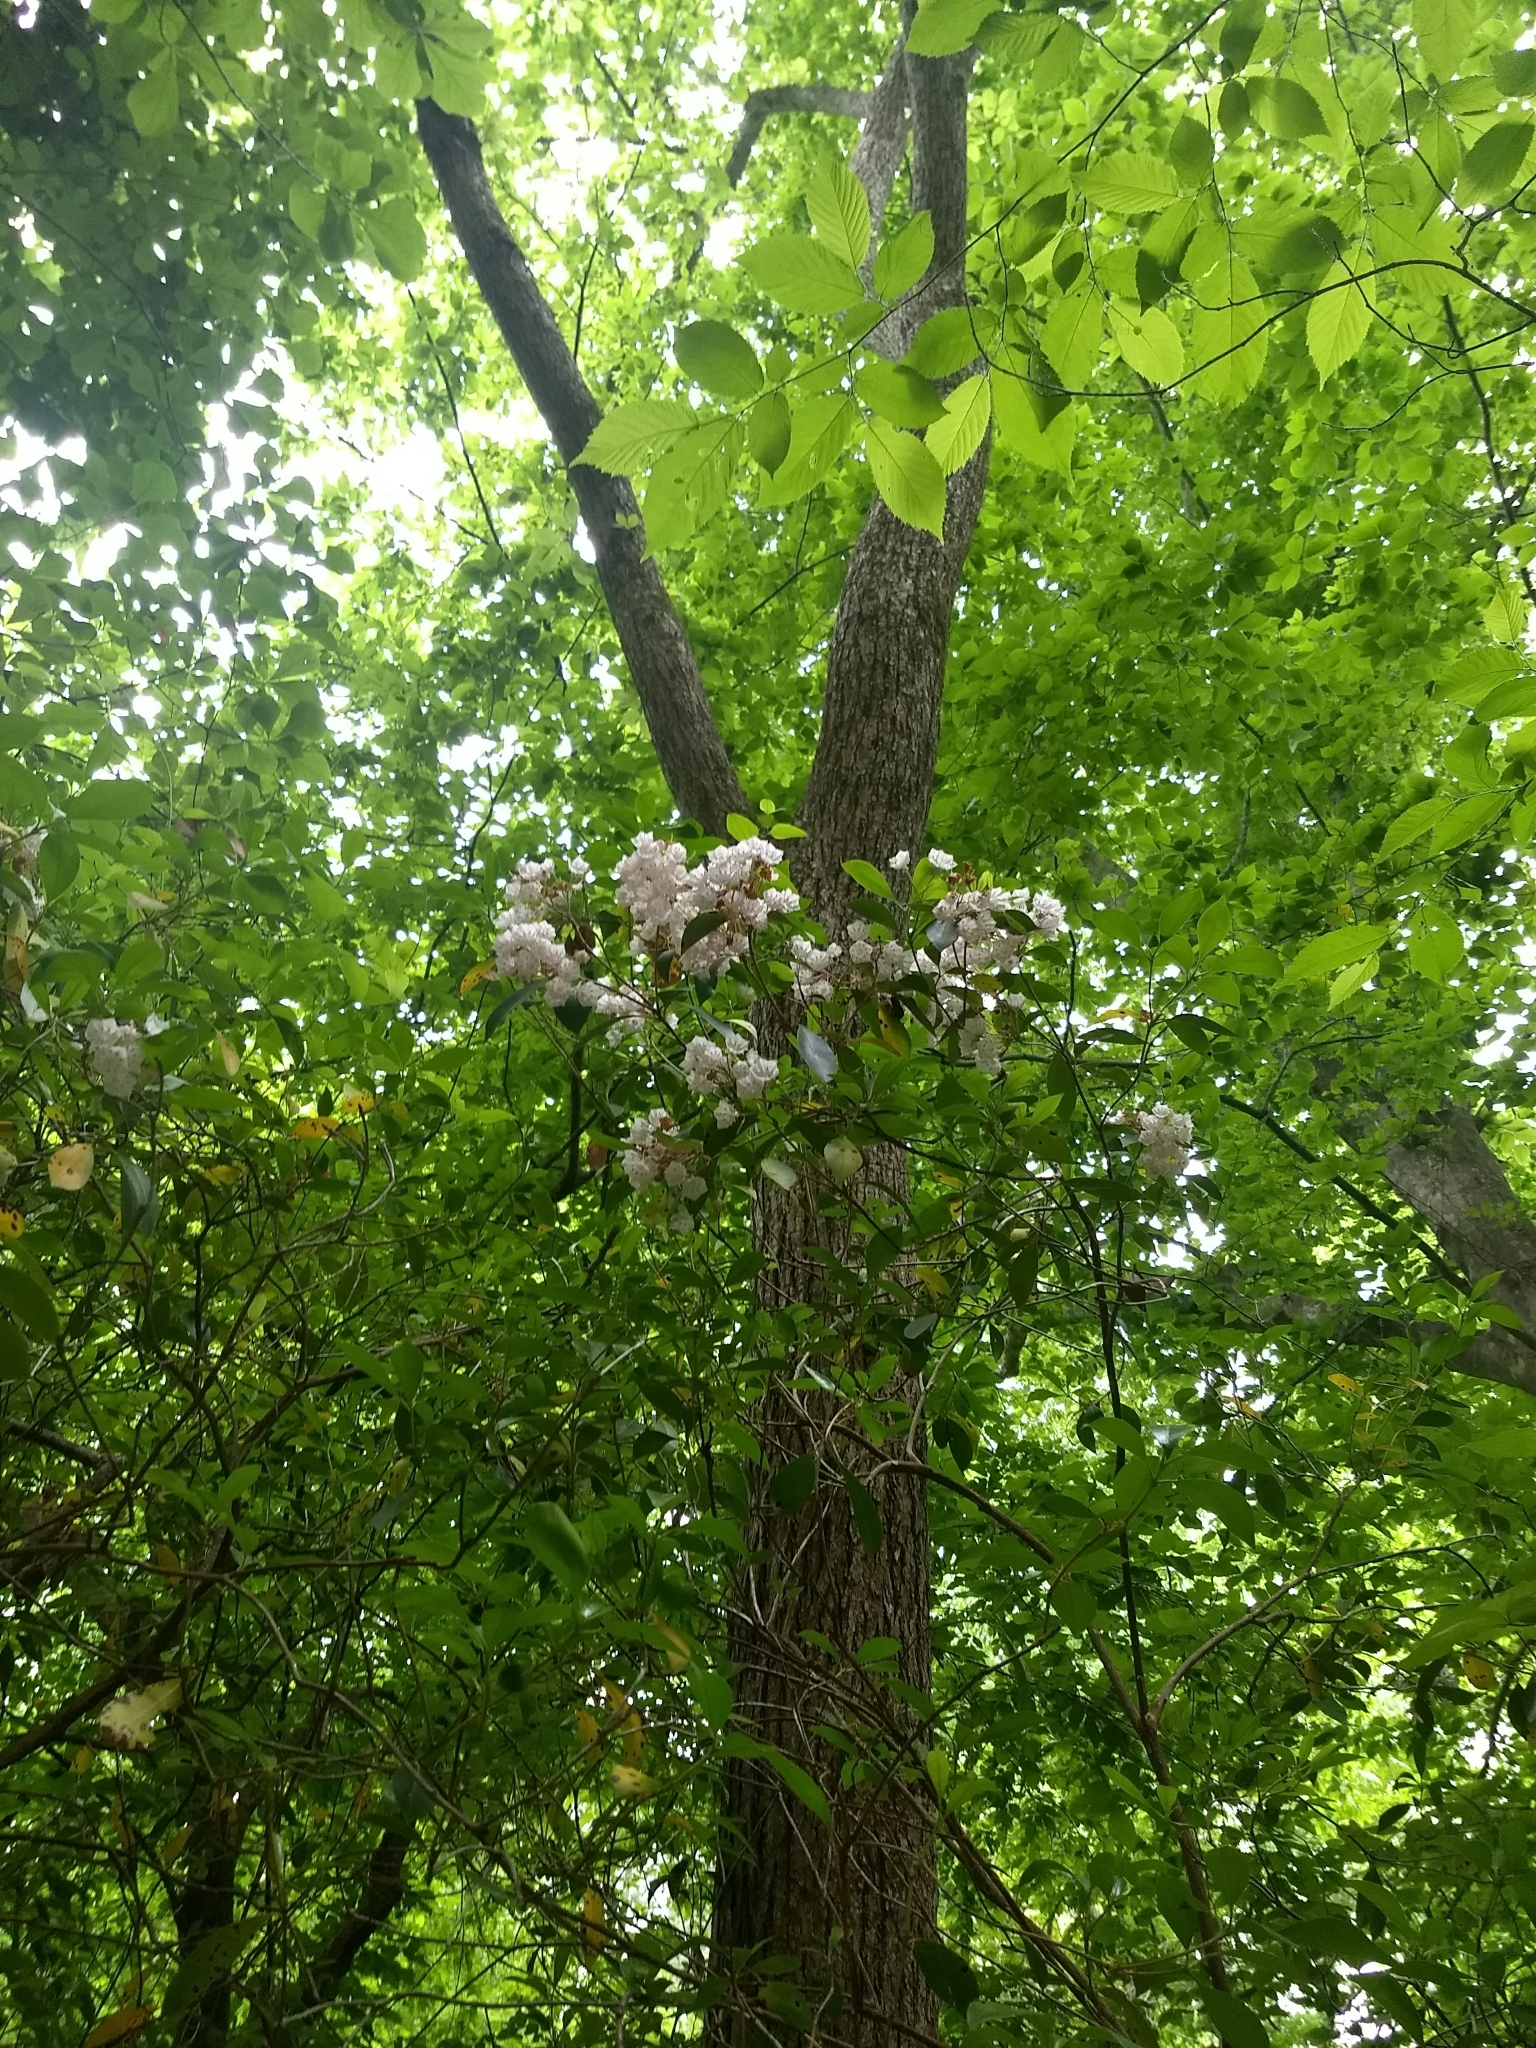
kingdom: Plantae
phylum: Tracheophyta
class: Magnoliopsida
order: Ericales
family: Ericaceae
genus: Kalmia
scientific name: Kalmia latifolia
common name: Mountain-laurel
